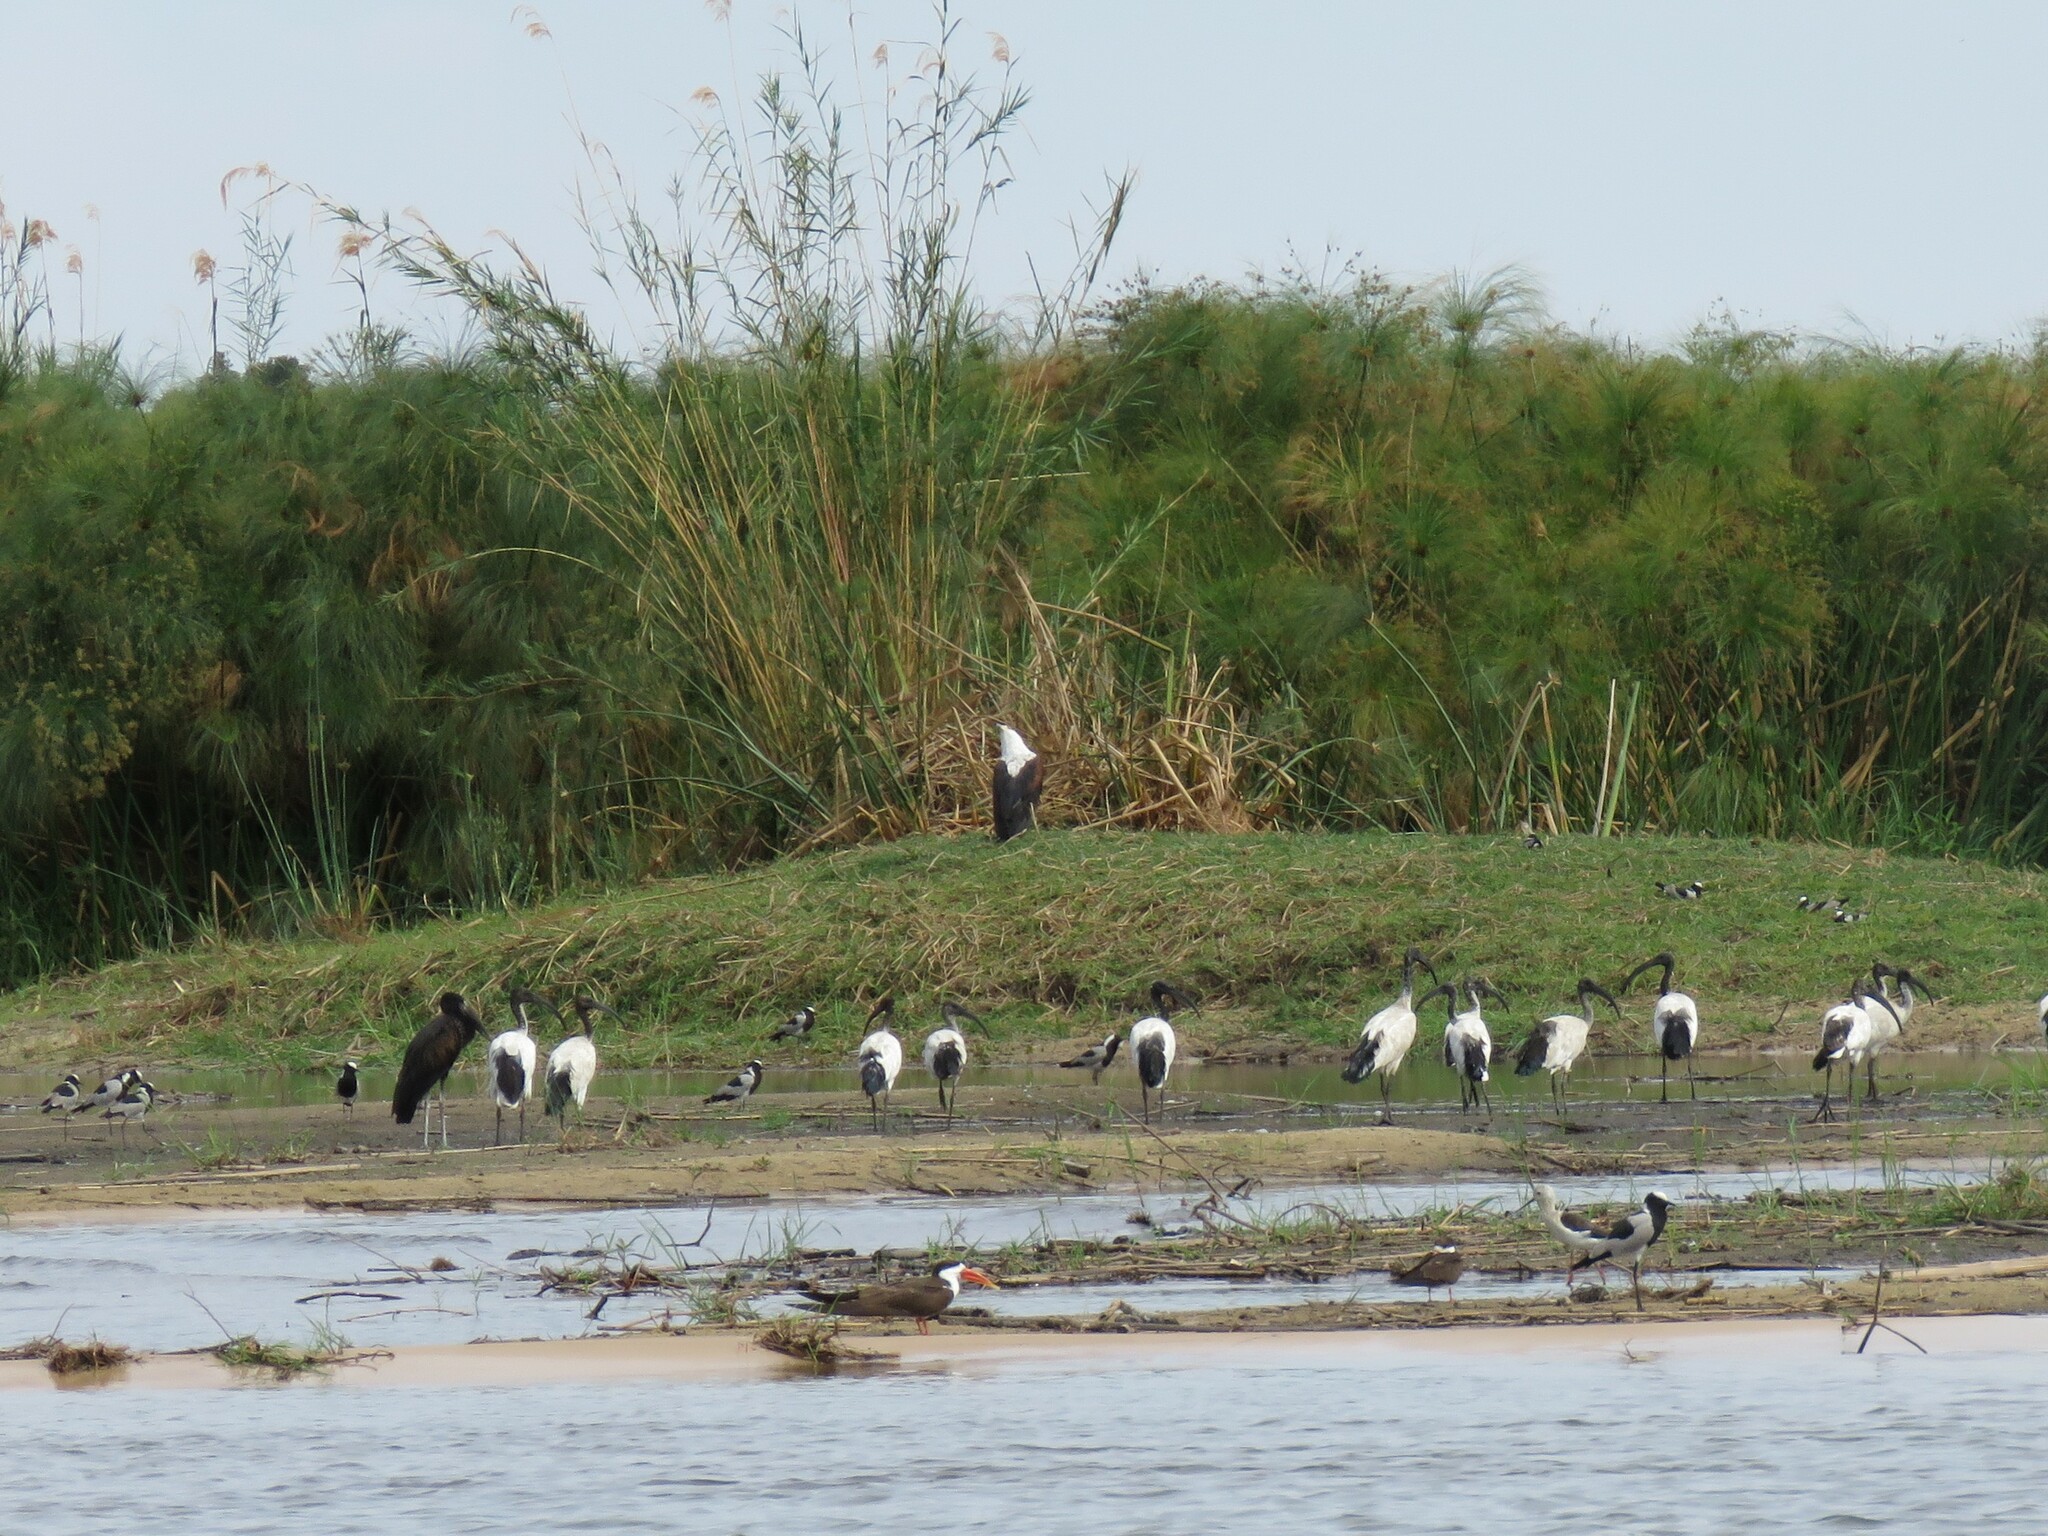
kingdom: Animalia
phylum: Chordata
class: Aves
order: Accipitriformes
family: Accipitridae
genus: Haliaeetus
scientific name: Haliaeetus vocifer
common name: African fish eagle
